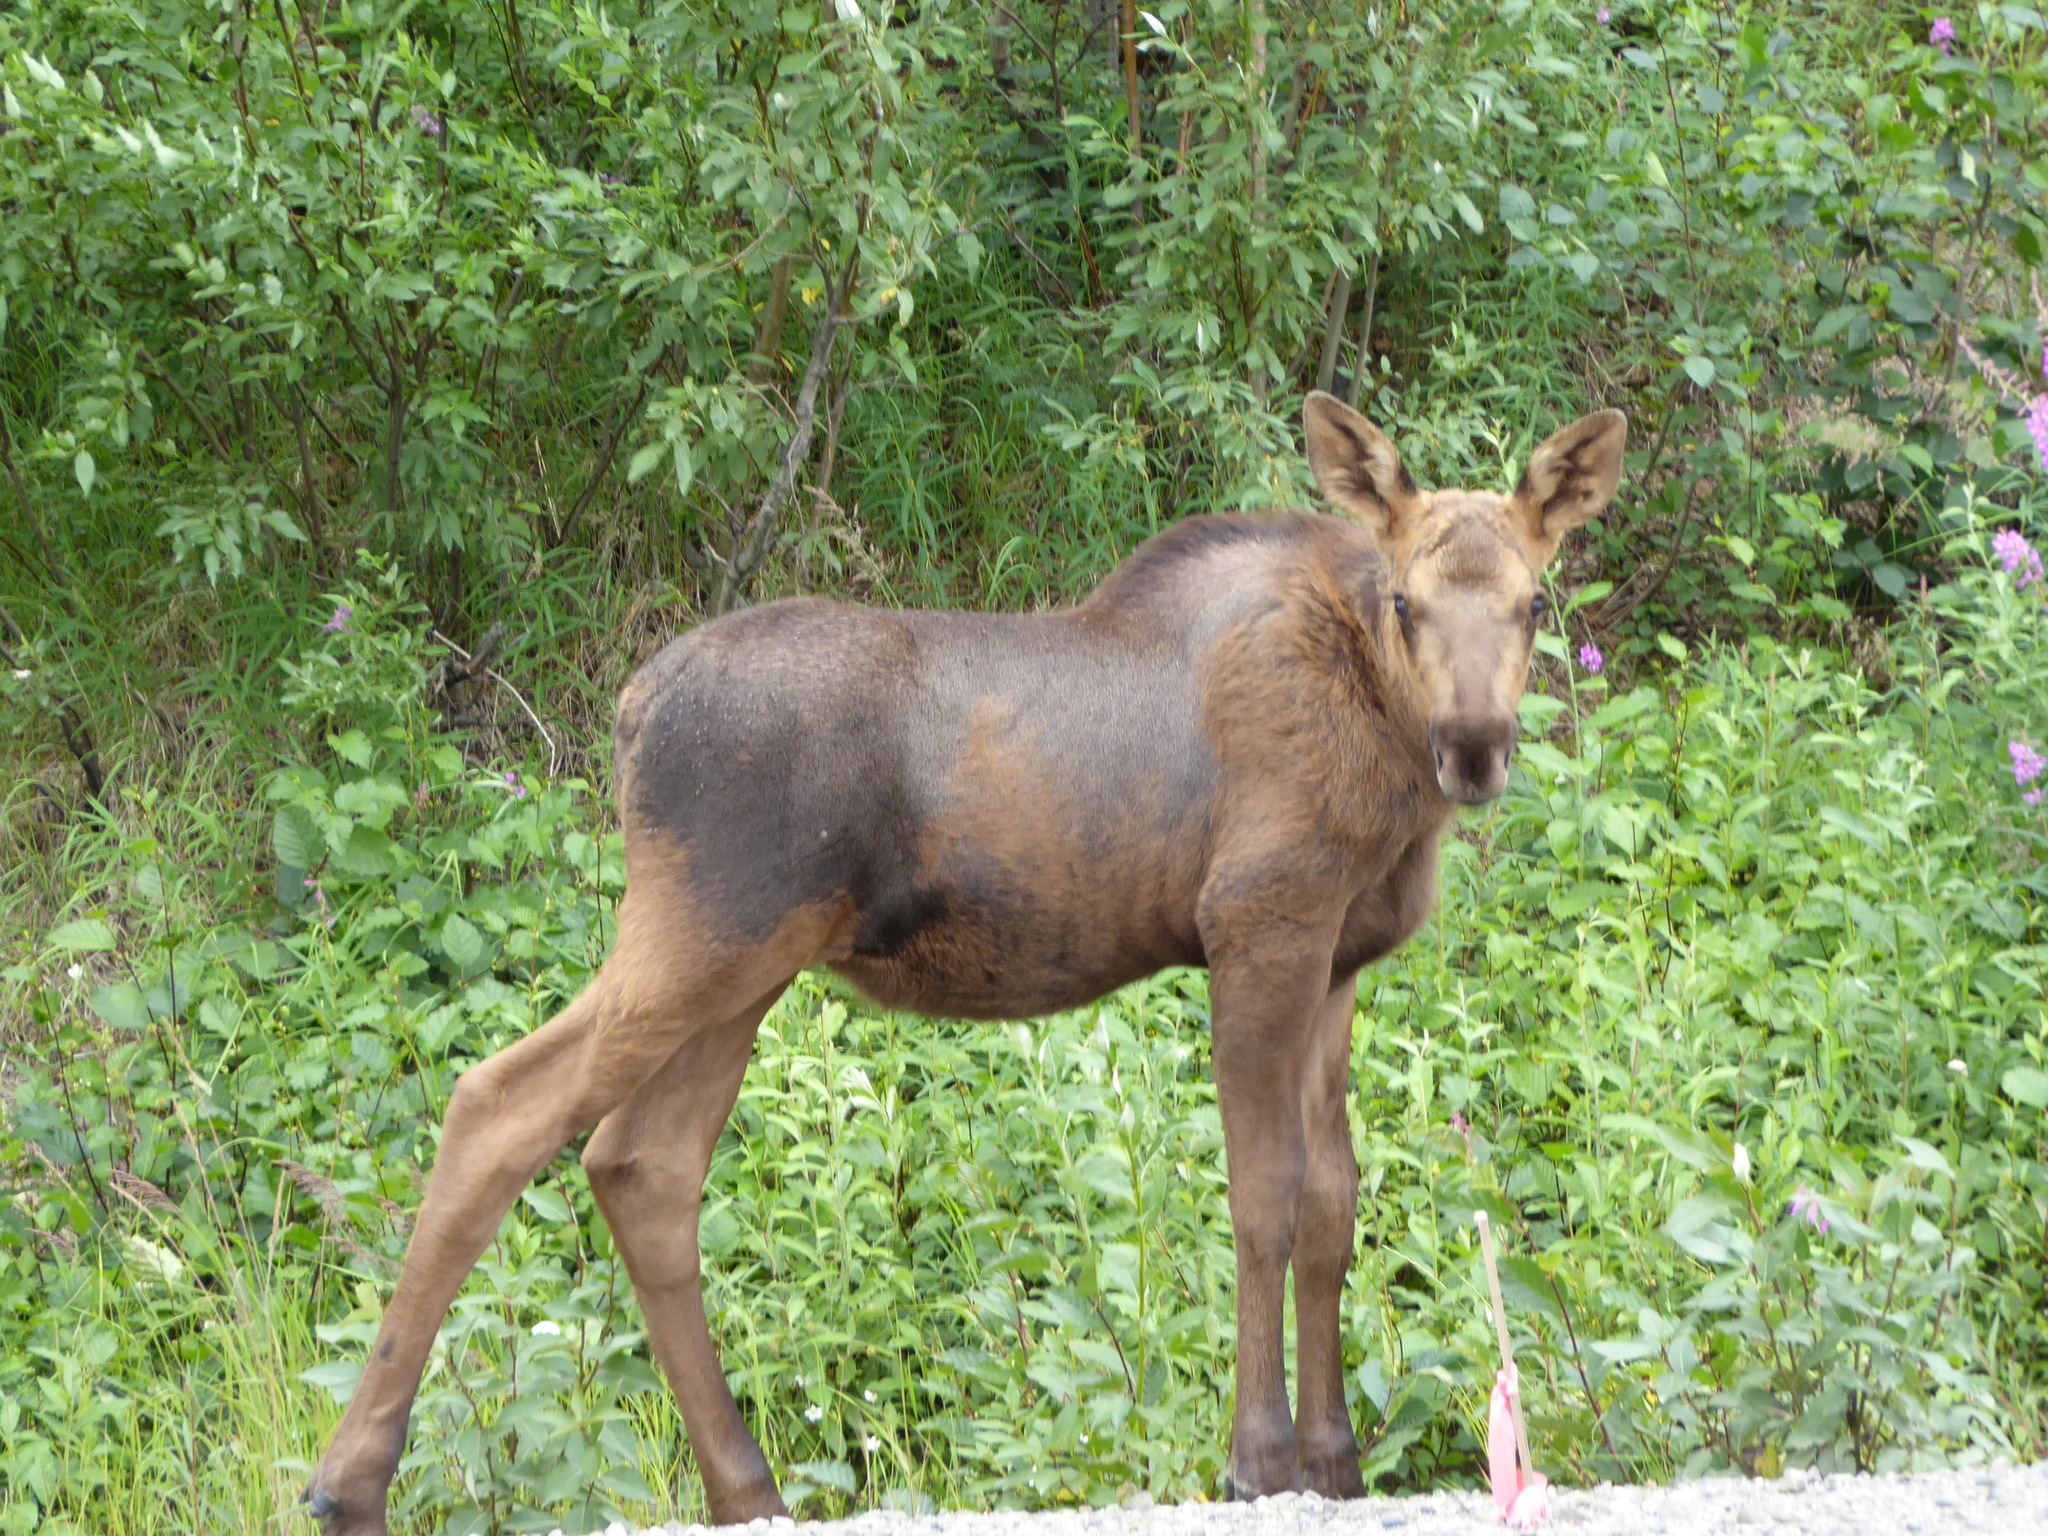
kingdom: Animalia
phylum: Chordata
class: Mammalia
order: Artiodactyla
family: Cervidae
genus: Alces
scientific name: Alces alces
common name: Moose
